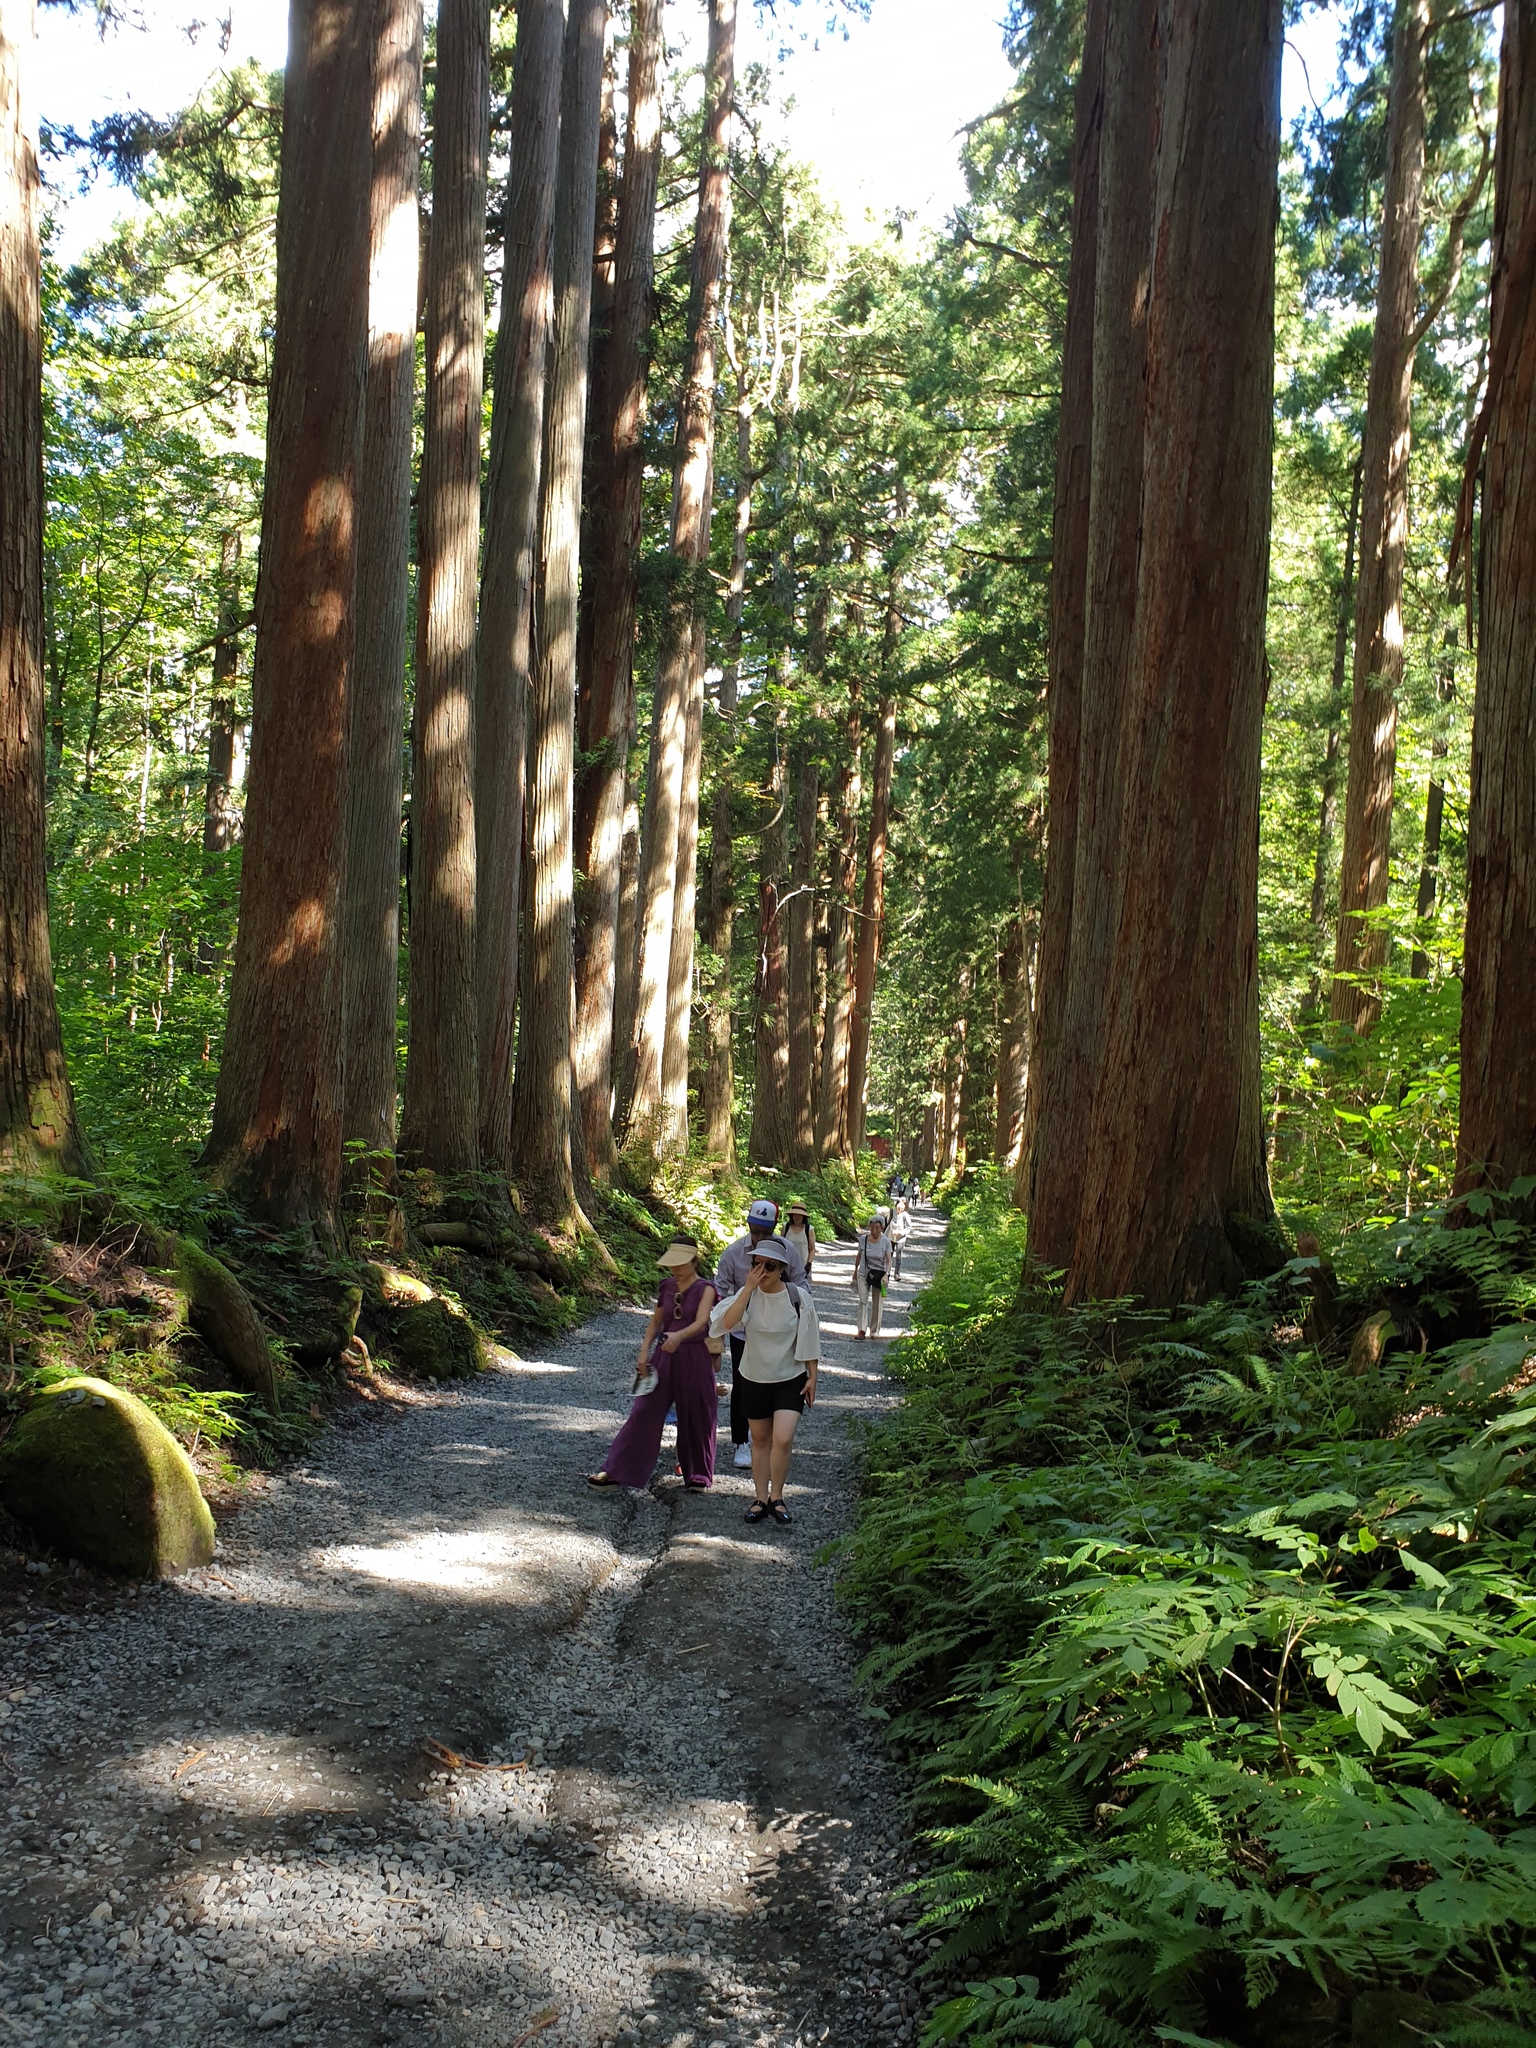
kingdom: Plantae
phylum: Tracheophyta
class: Pinopsida
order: Pinales
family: Cupressaceae
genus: Cryptomeria
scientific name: Cryptomeria japonica
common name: Japanese cedar
